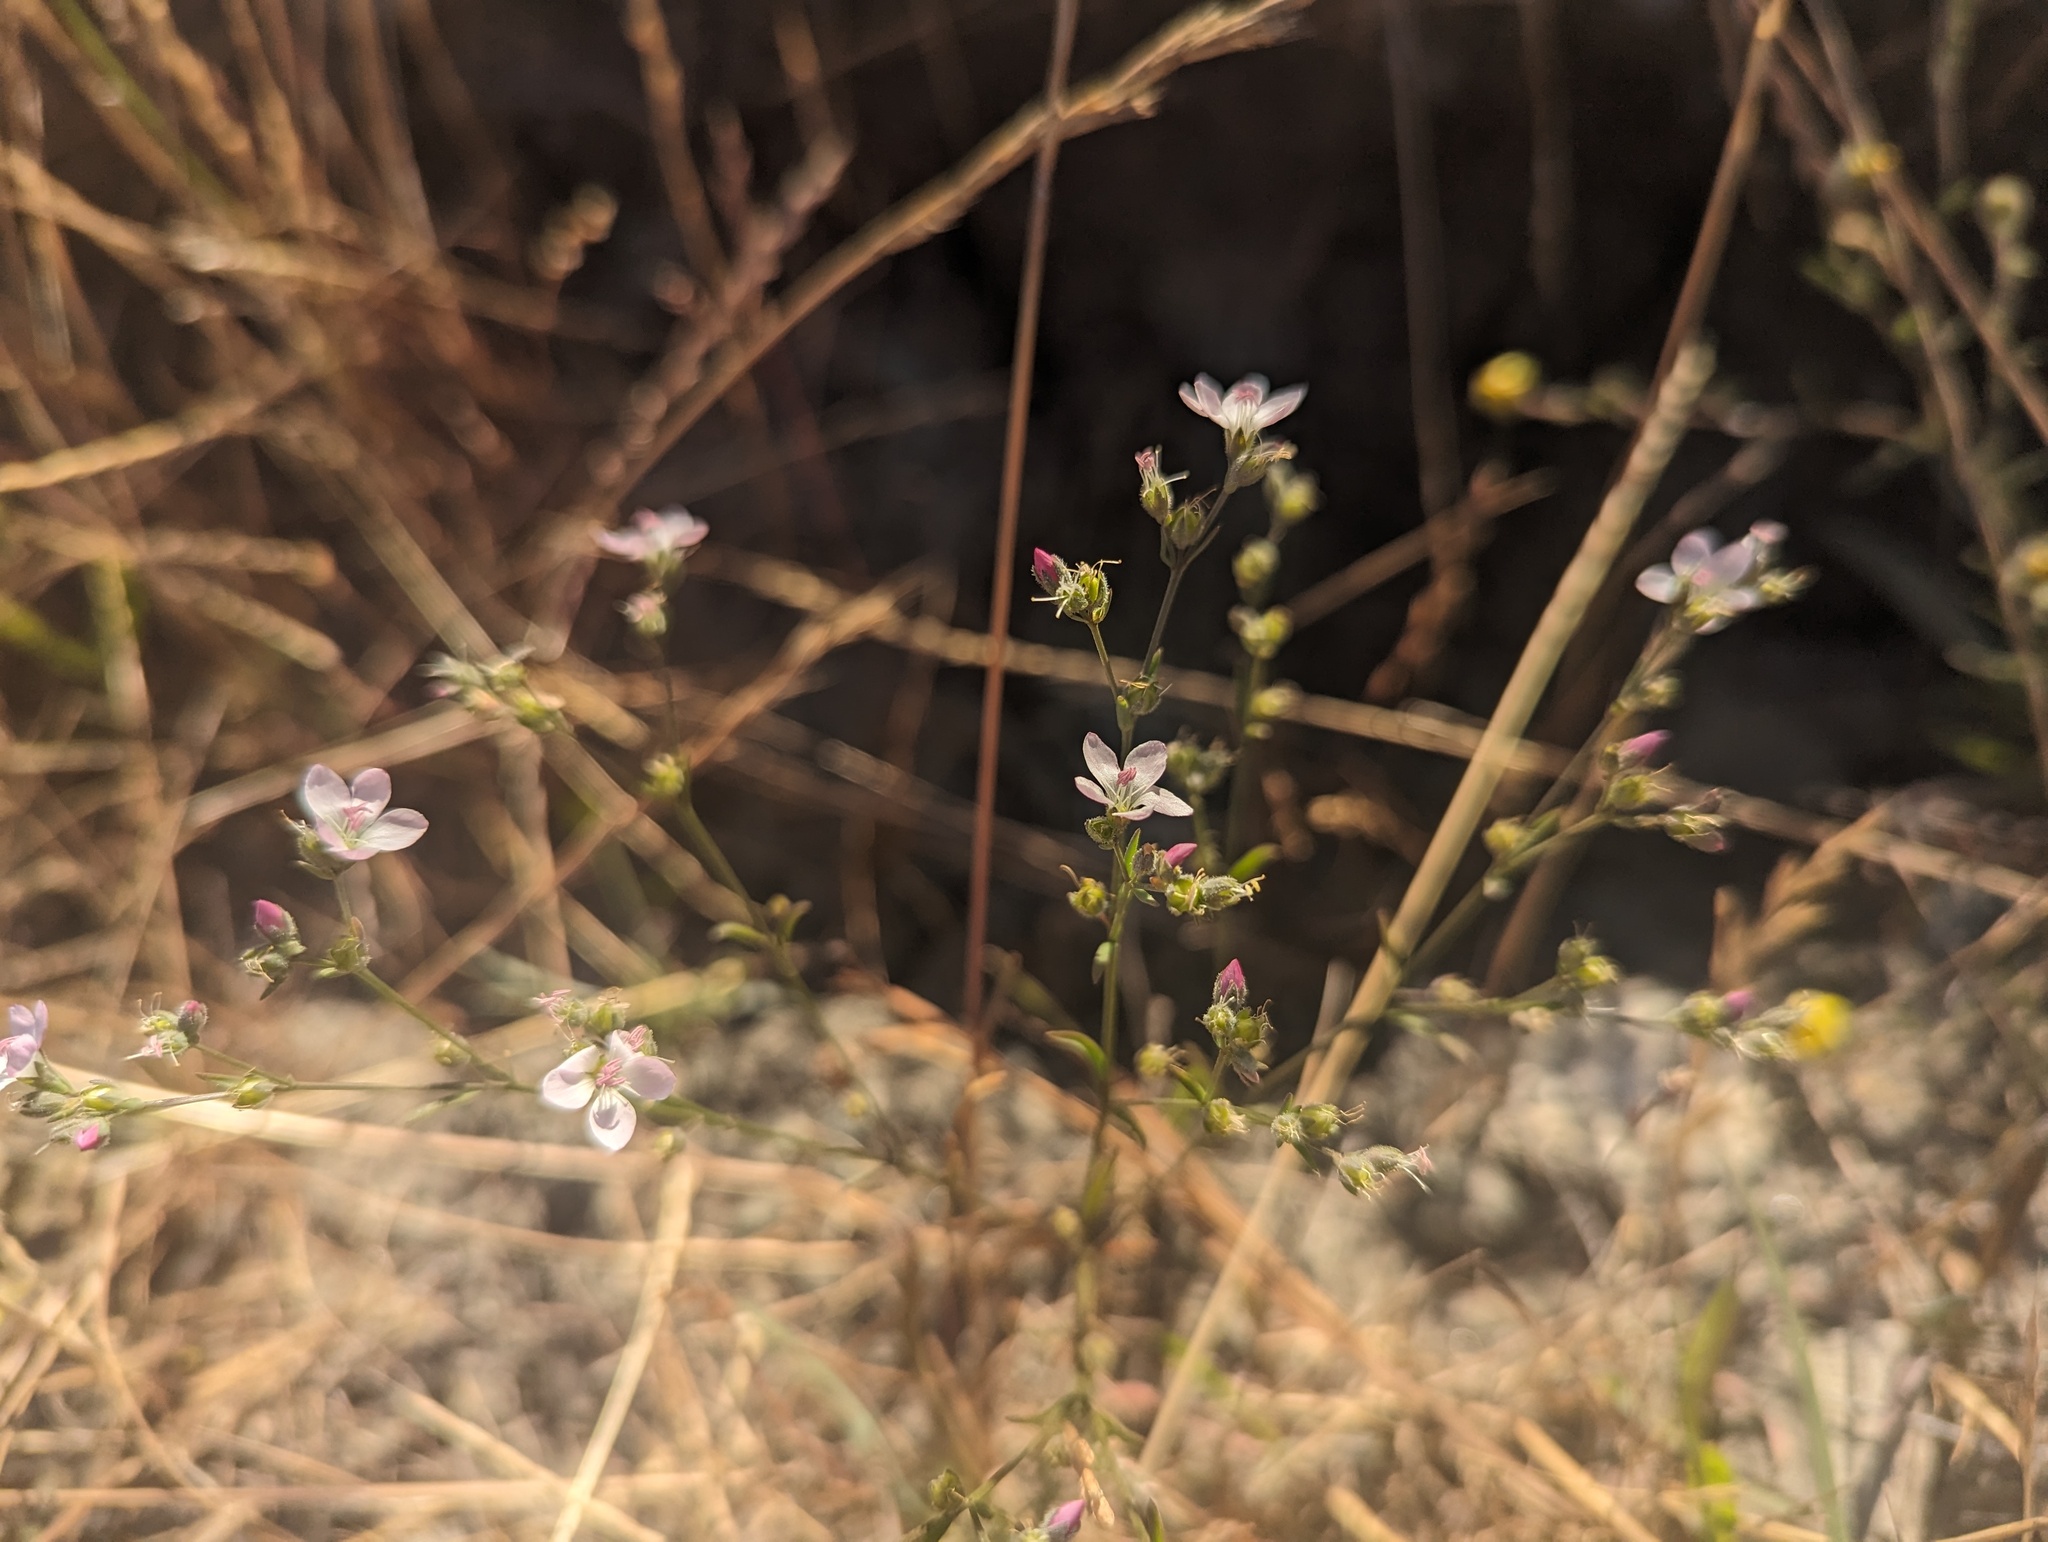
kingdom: Plantae
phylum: Tracheophyta
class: Magnoliopsida
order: Malpighiales
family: Linaceae
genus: Hesperolinon
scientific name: Hesperolinon congestum
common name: Marin dwarf-flax
